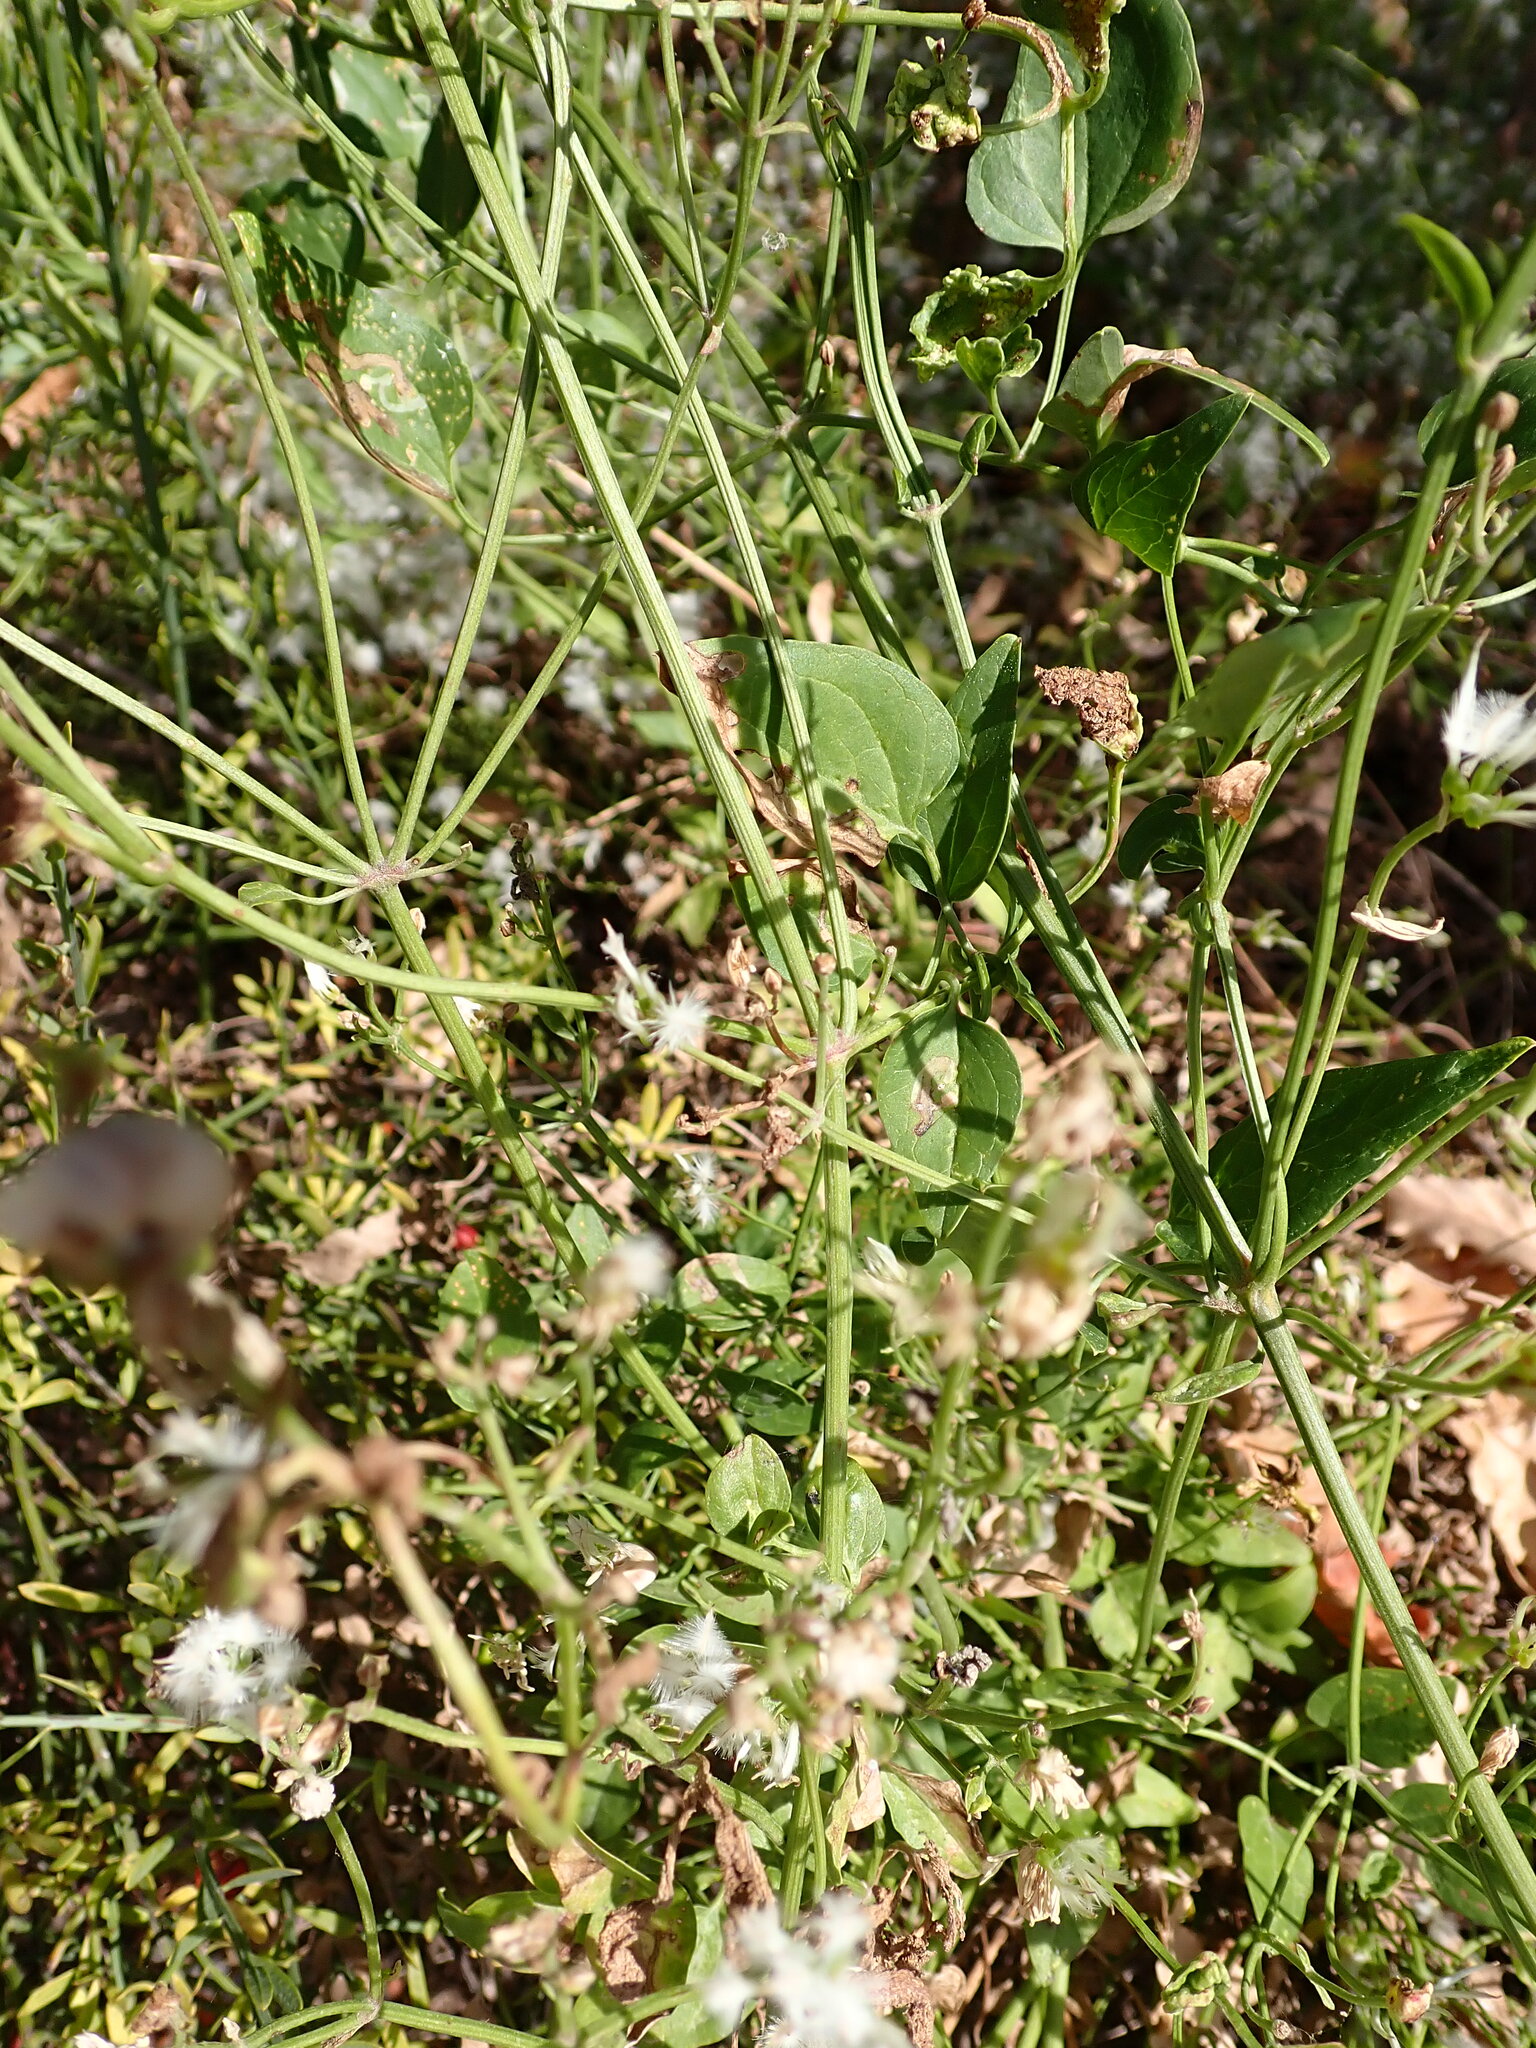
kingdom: Plantae
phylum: Tracheophyta
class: Magnoliopsida
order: Ranunculales
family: Ranunculaceae
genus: Clematis
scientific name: Clematis flammula
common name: Virgin's-bower
